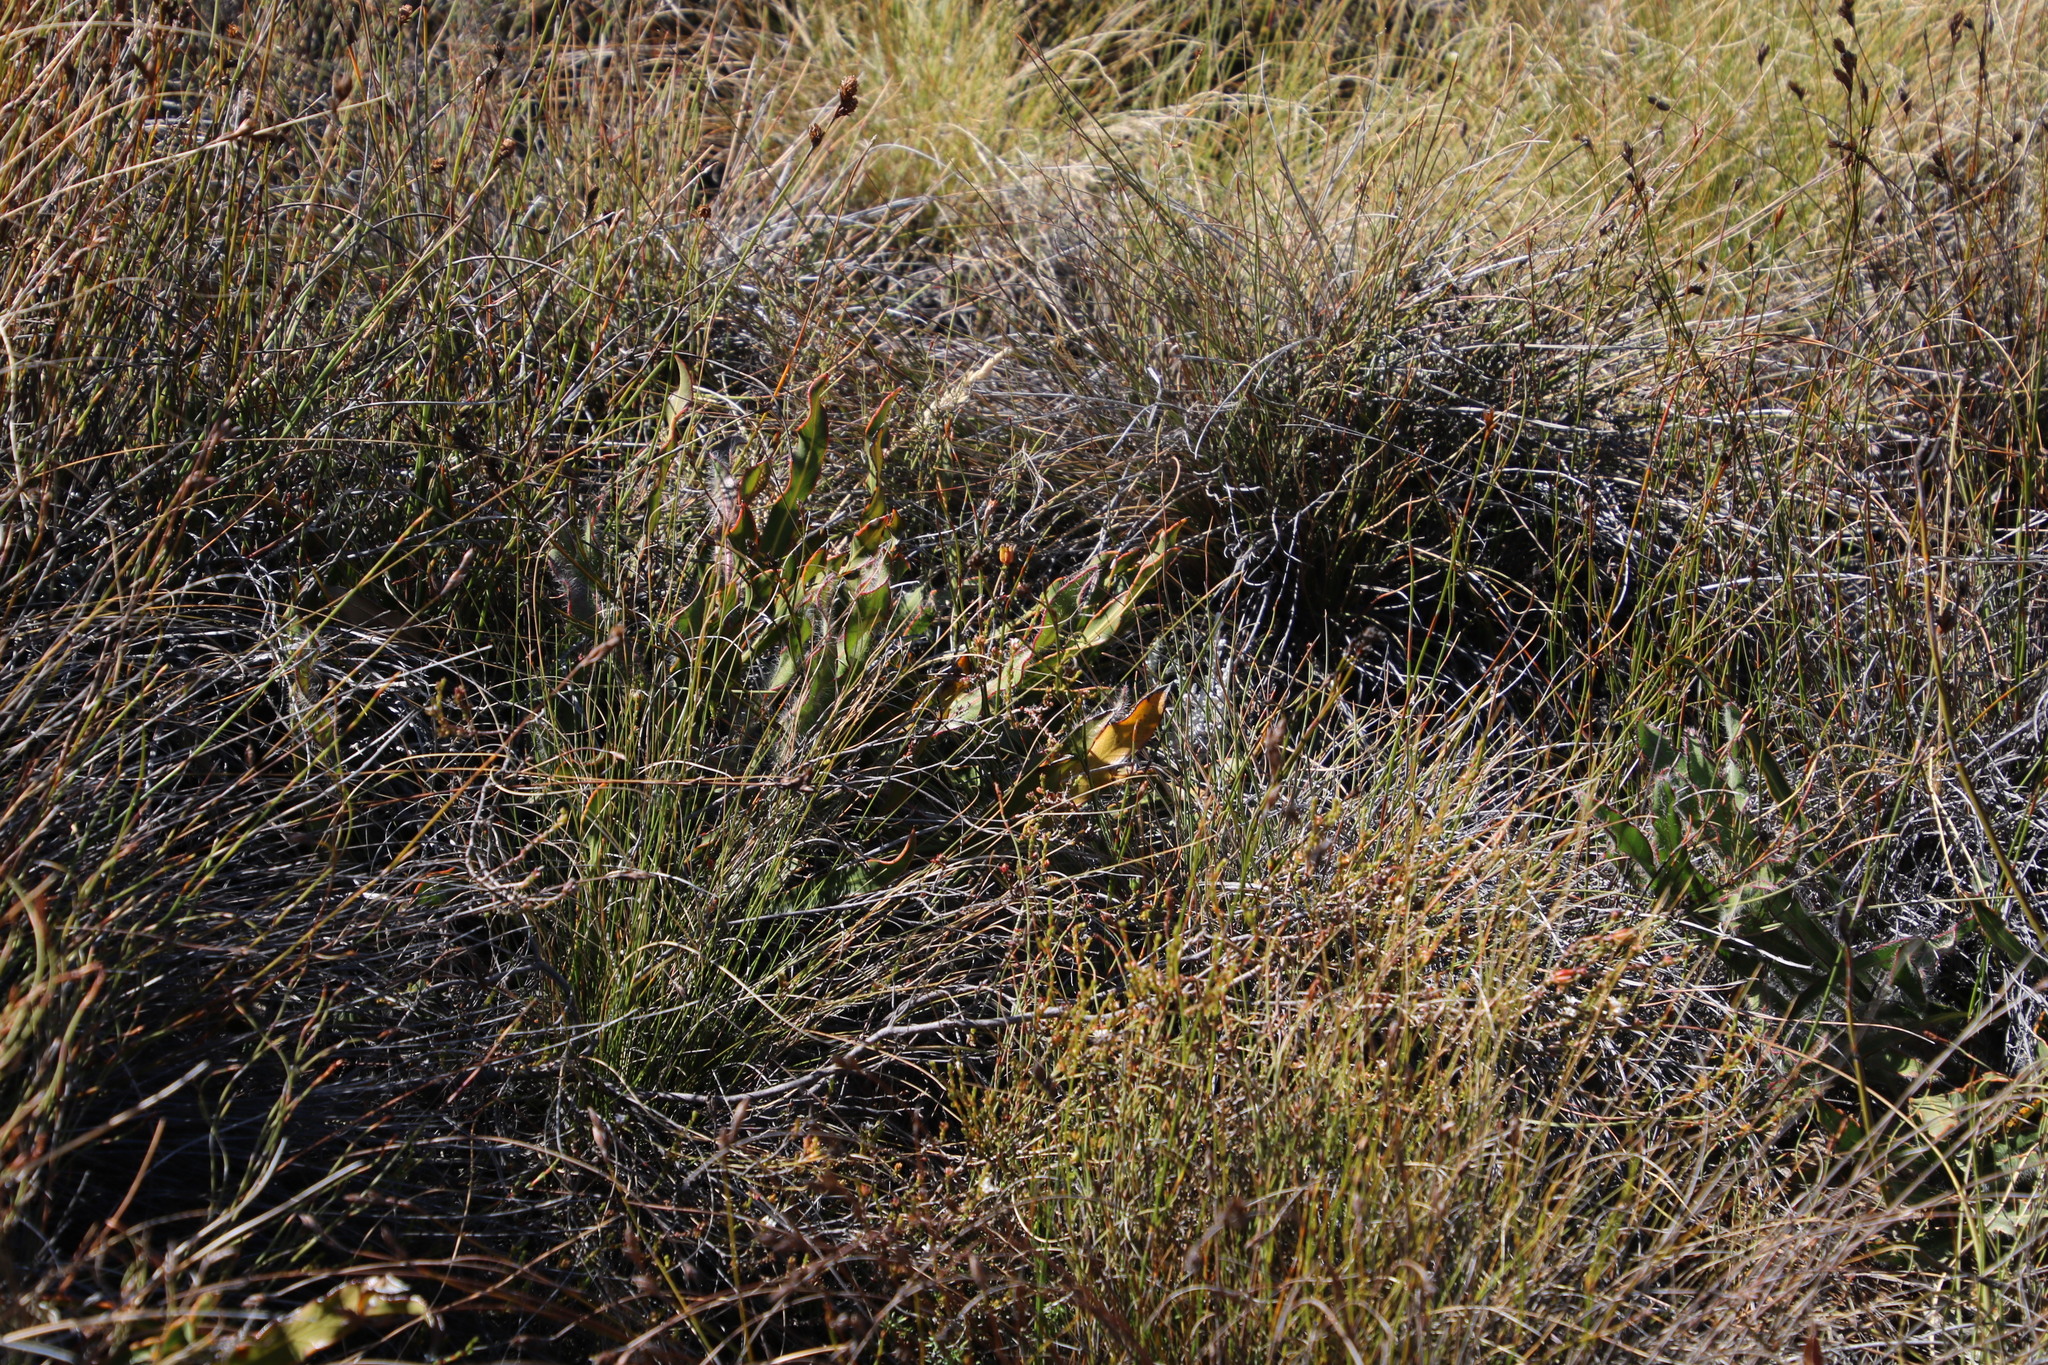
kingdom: Plantae
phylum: Tracheophyta
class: Magnoliopsida
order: Proteales
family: Proteaceae
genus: Protea
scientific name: Protea scabriuscula
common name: Hoary sugarbush
